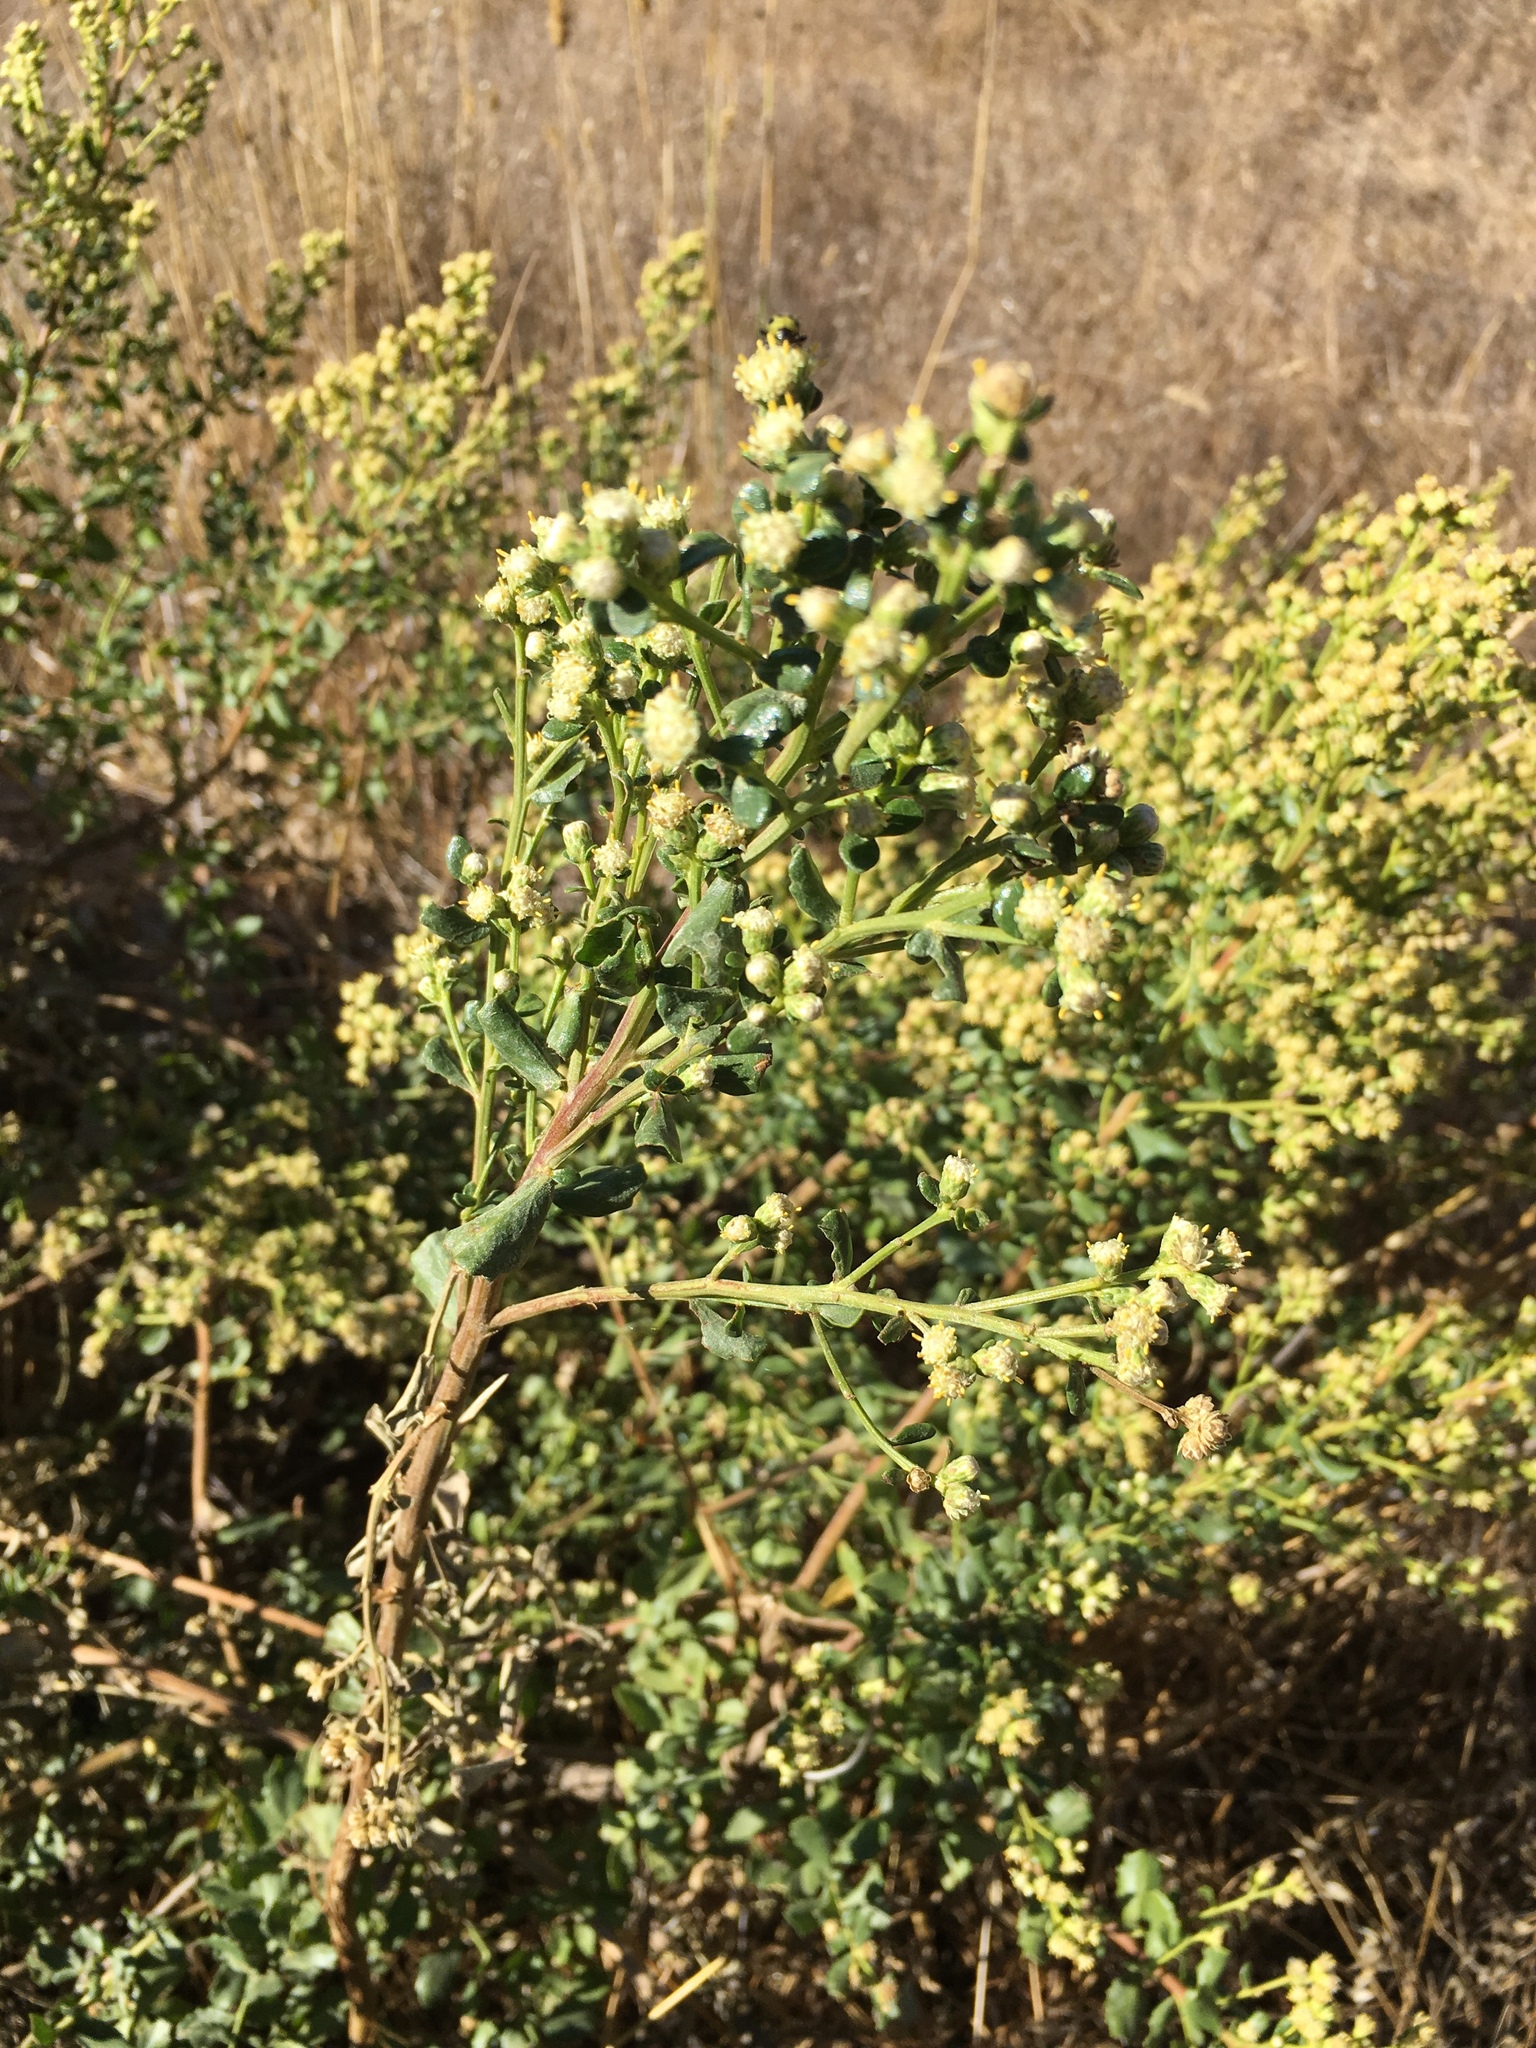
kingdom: Plantae
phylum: Tracheophyta
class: Magnoliopsida
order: Asterales
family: Asteraceae
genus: Baccharis
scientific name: Baccharis pilularis
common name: Coyotebrush
